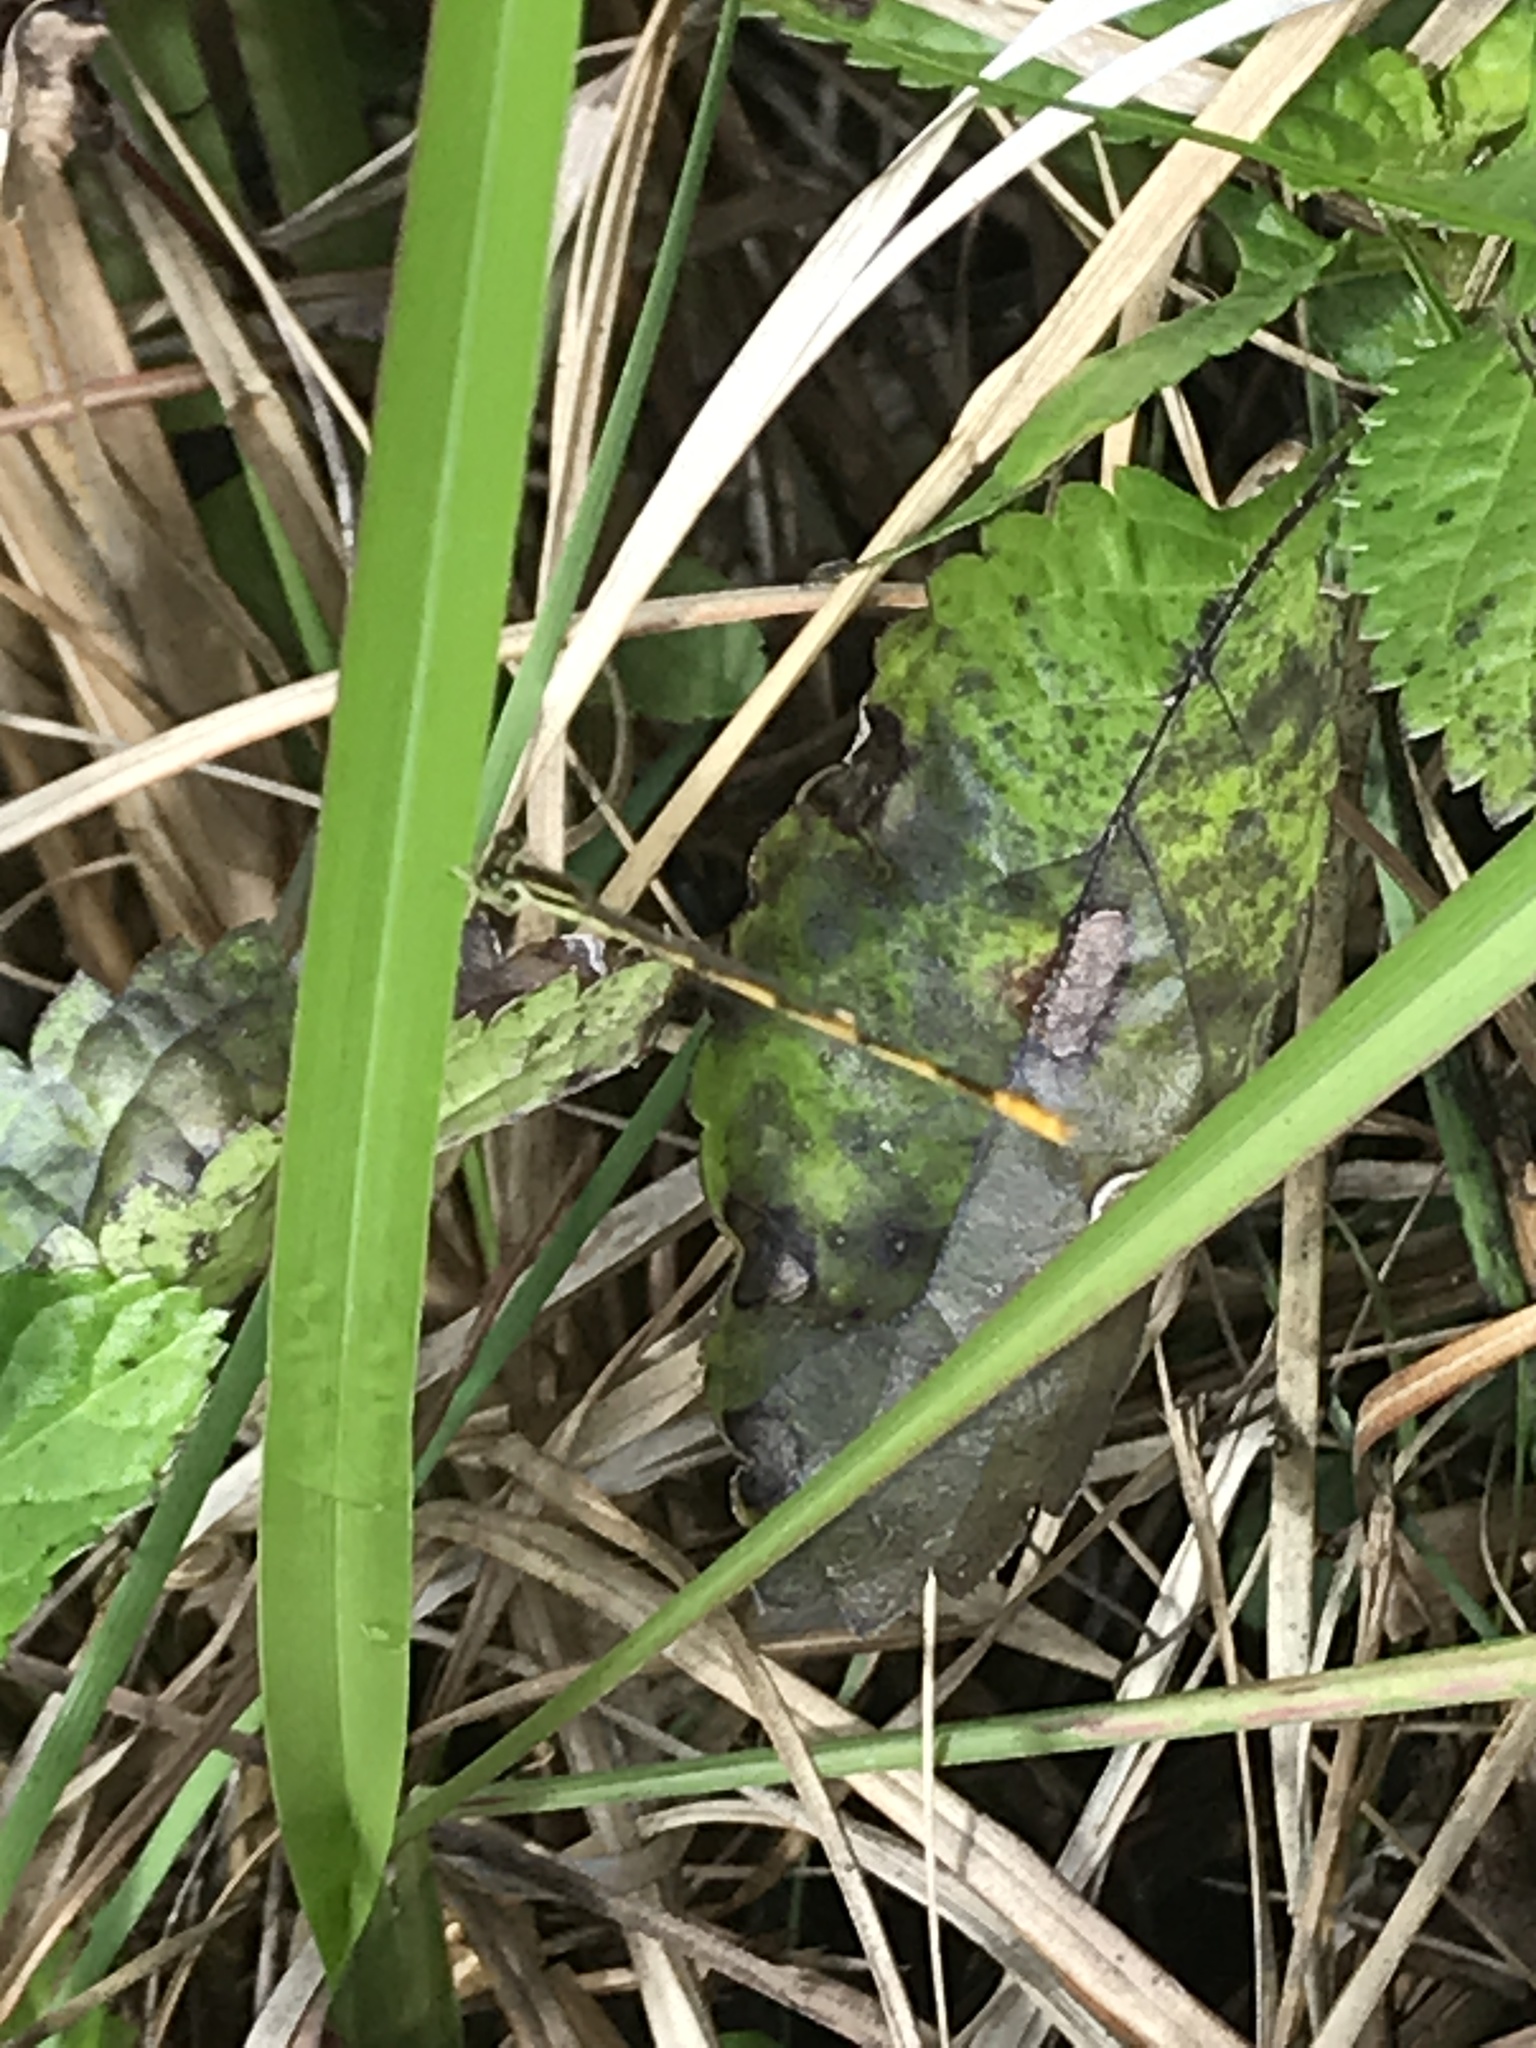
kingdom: Animalia
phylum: Arthropoda
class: Insecta
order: Odonata
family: Coenagrionidae
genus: Ischnura
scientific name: Ischnura hastata
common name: Citrine forktail
